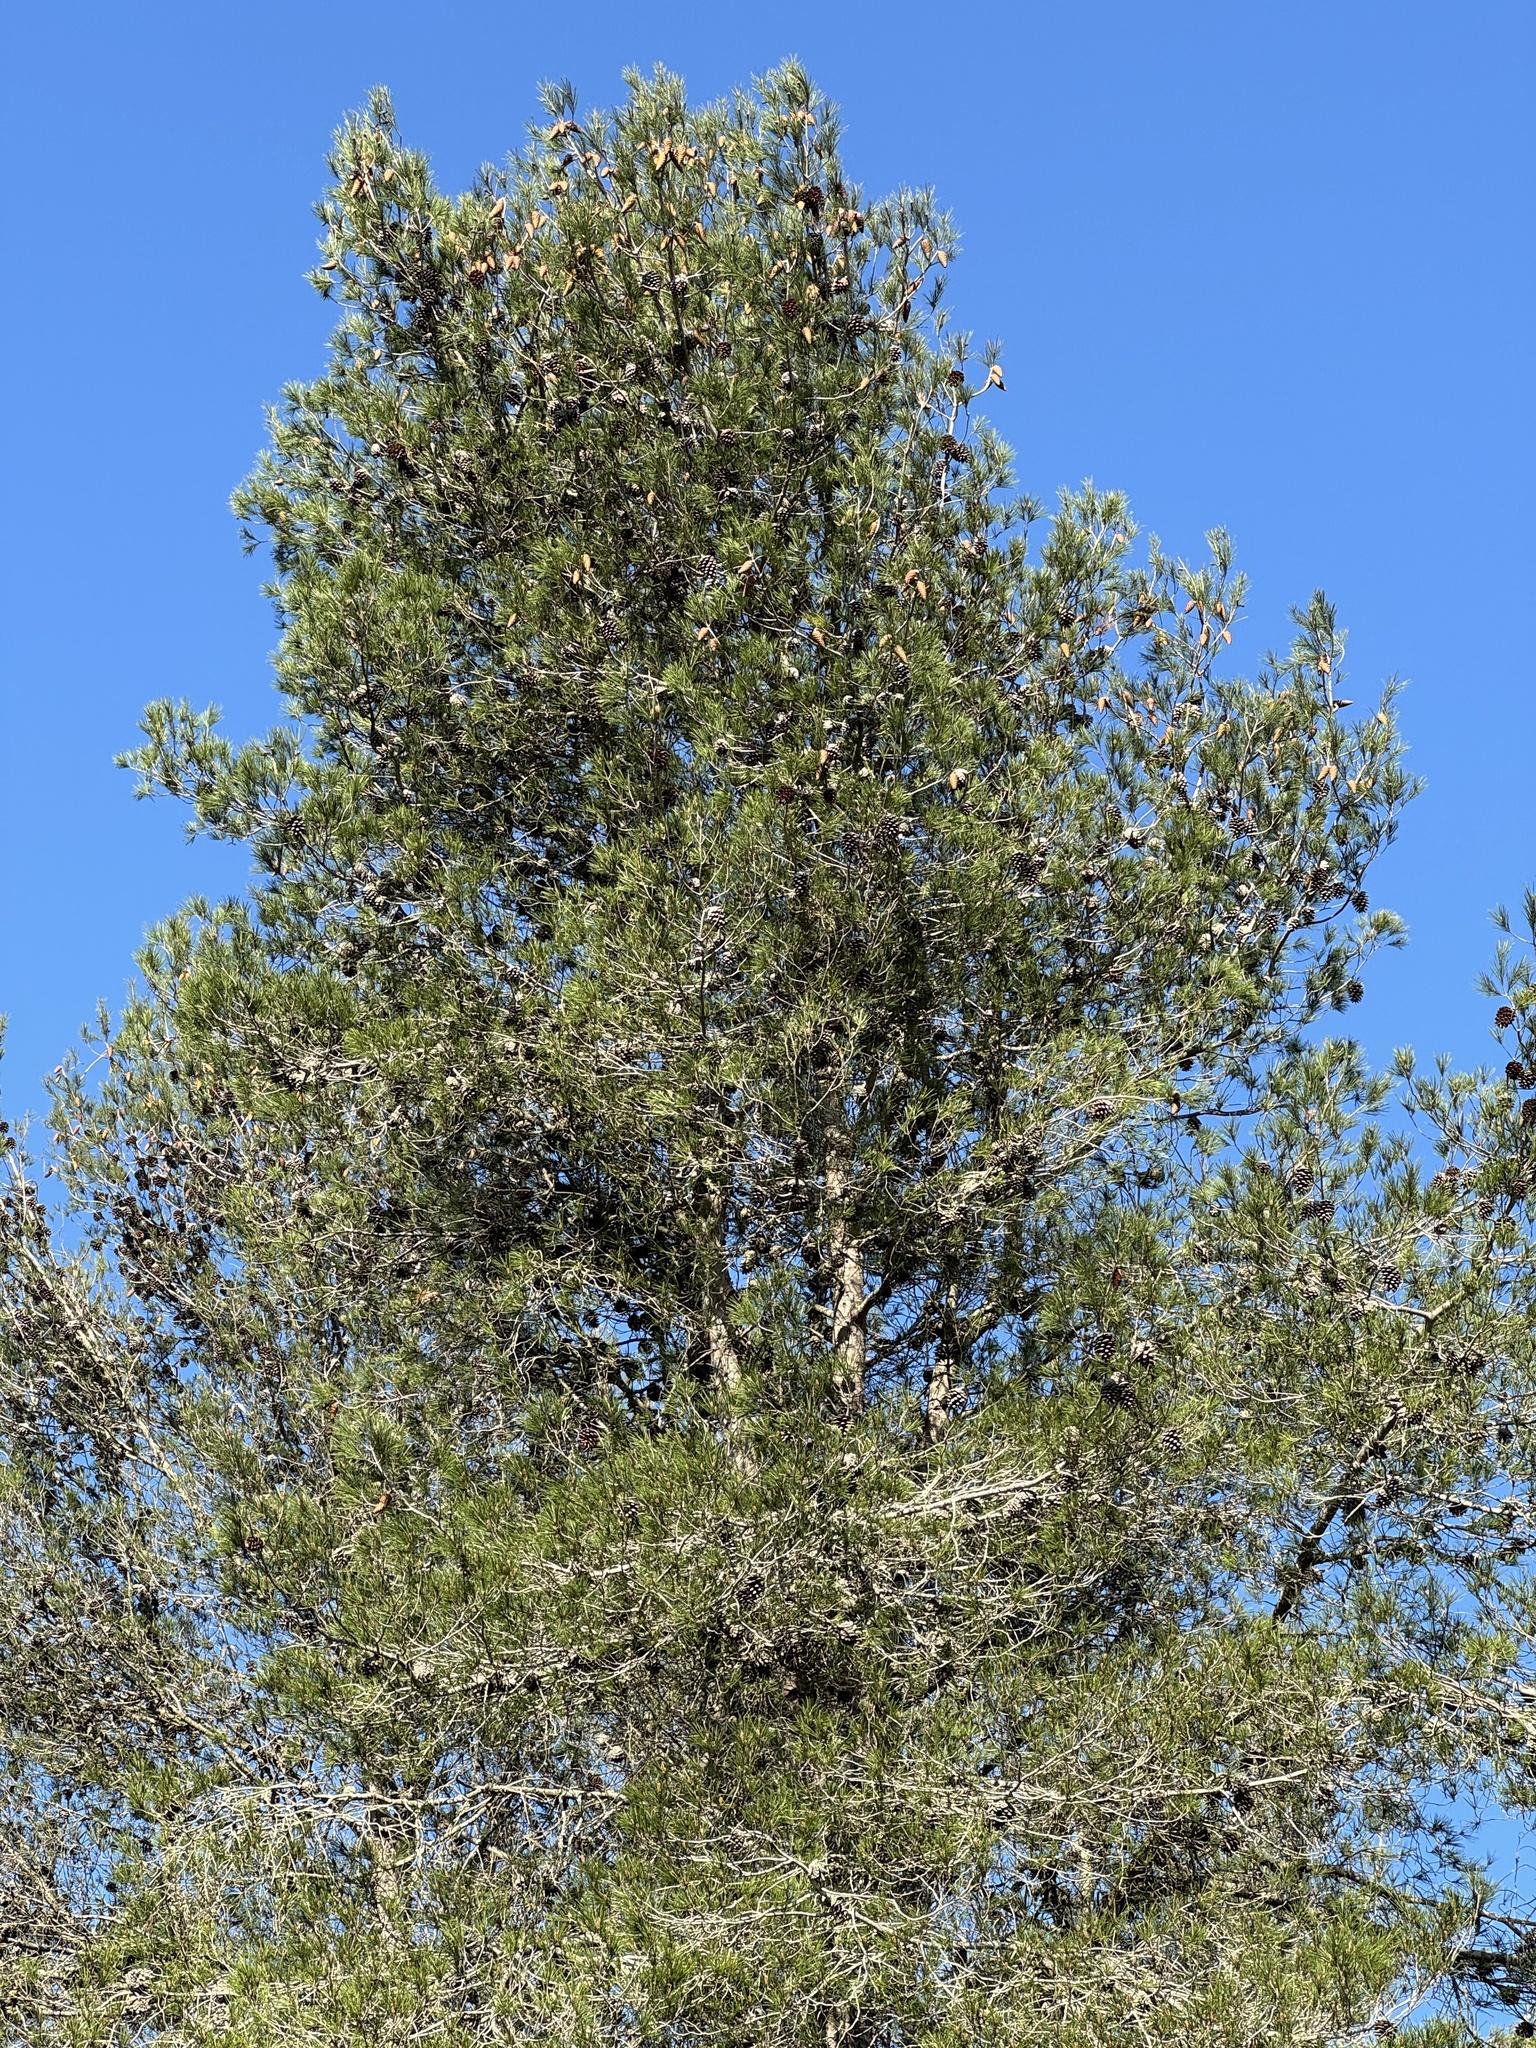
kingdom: Plantae
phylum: Tracheophyta
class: Pinopsida
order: Pinales
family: Pinaceae
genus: Pinus
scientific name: Pinus halepensis
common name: Aleppo pine
